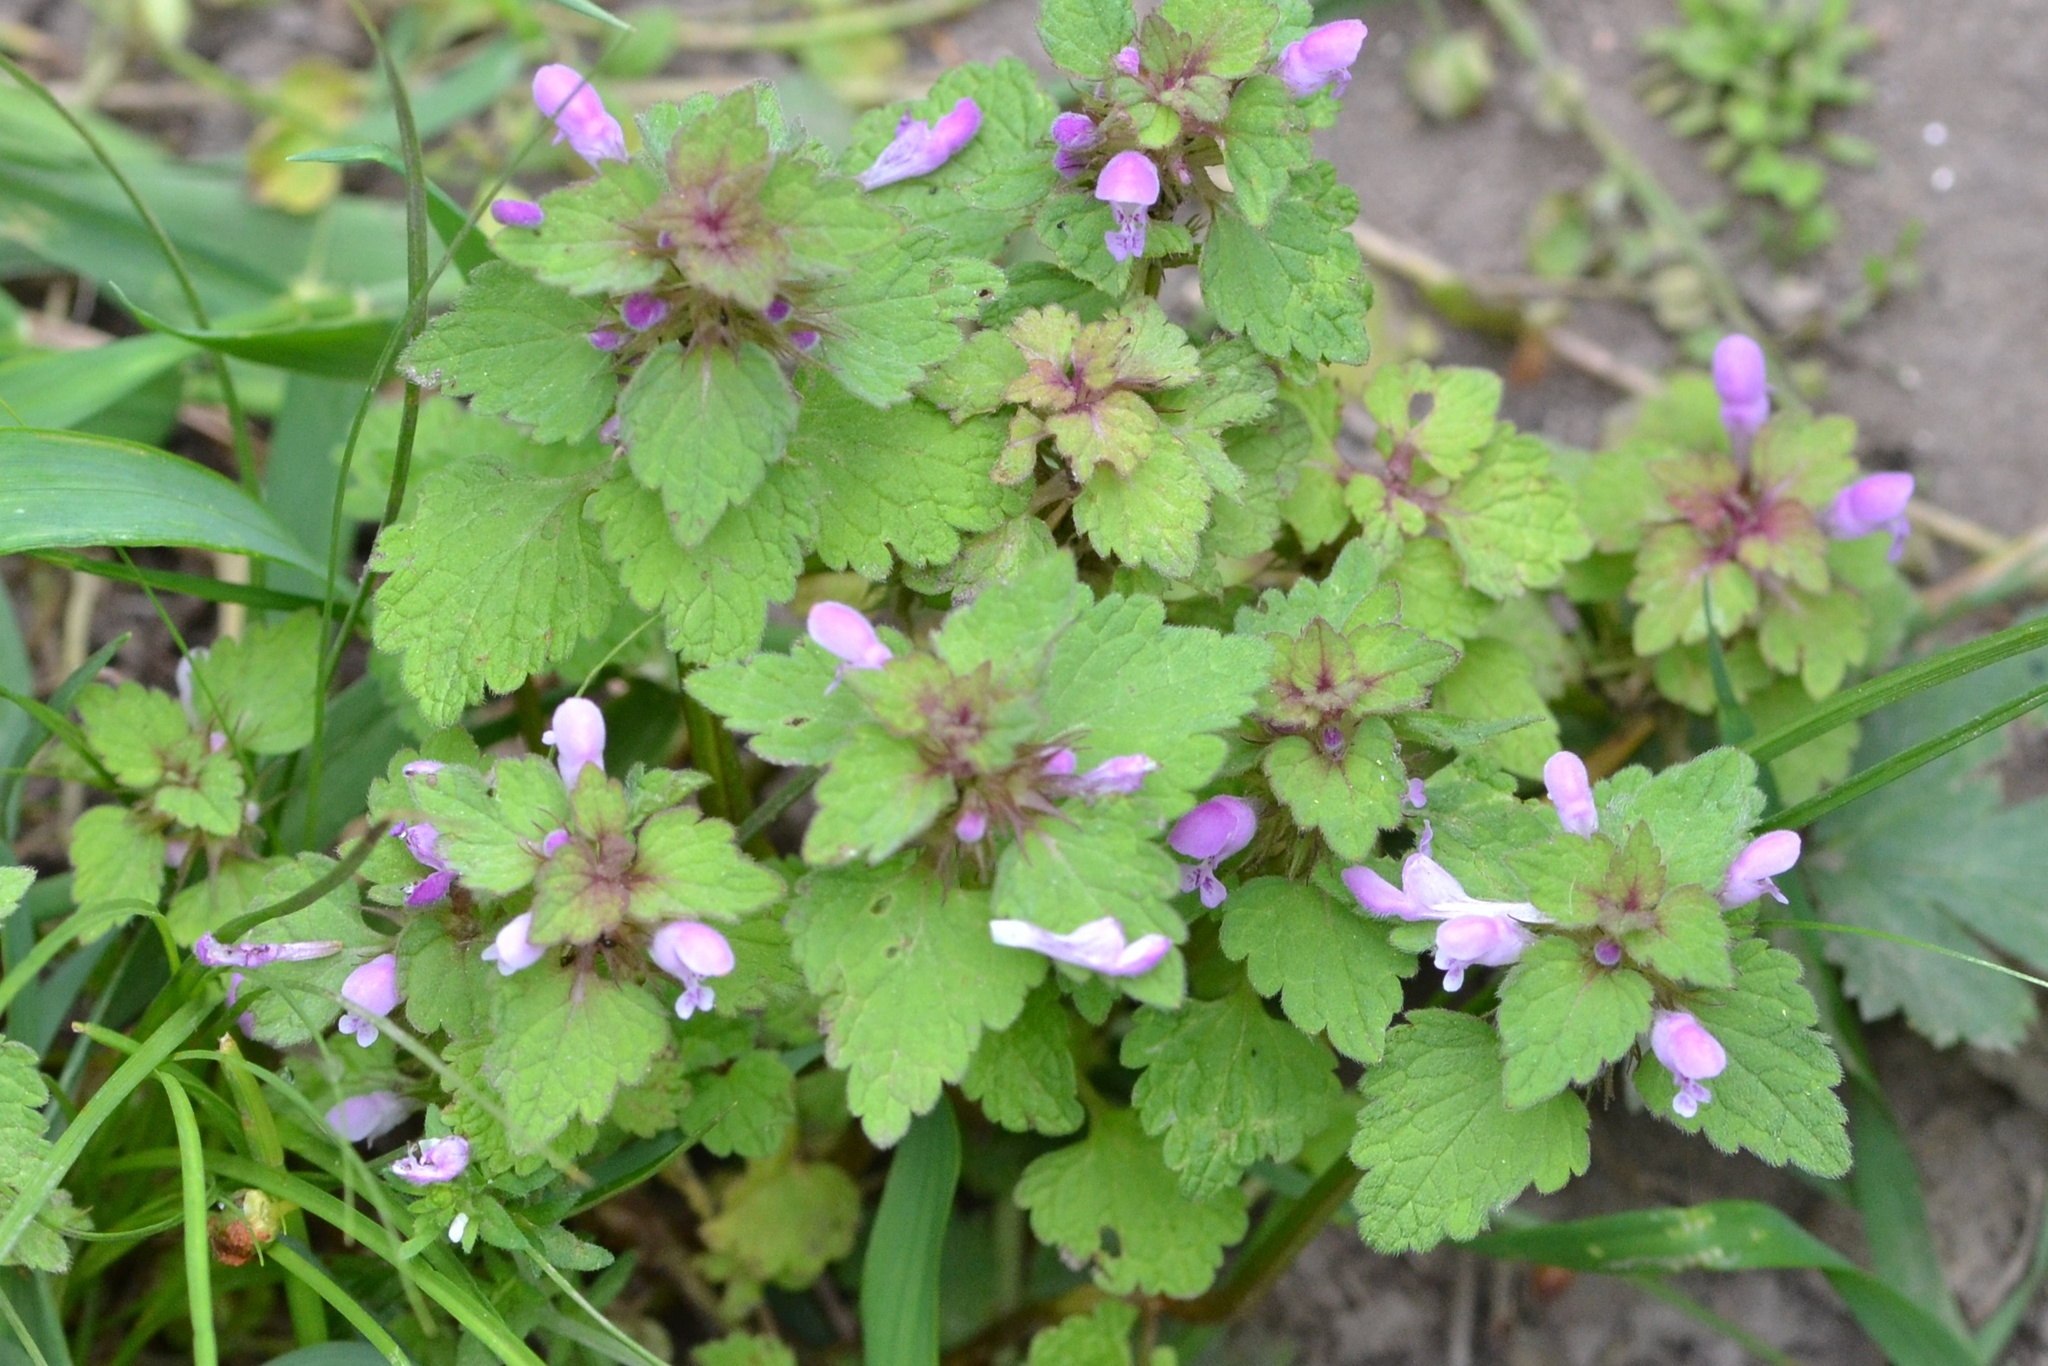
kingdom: Plantae
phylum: Tracheophyta
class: Magnoliopsida
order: Lamiales
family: Lamiaceae
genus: Lamium
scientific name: Lamium purpureum
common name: Red dead-nettle
